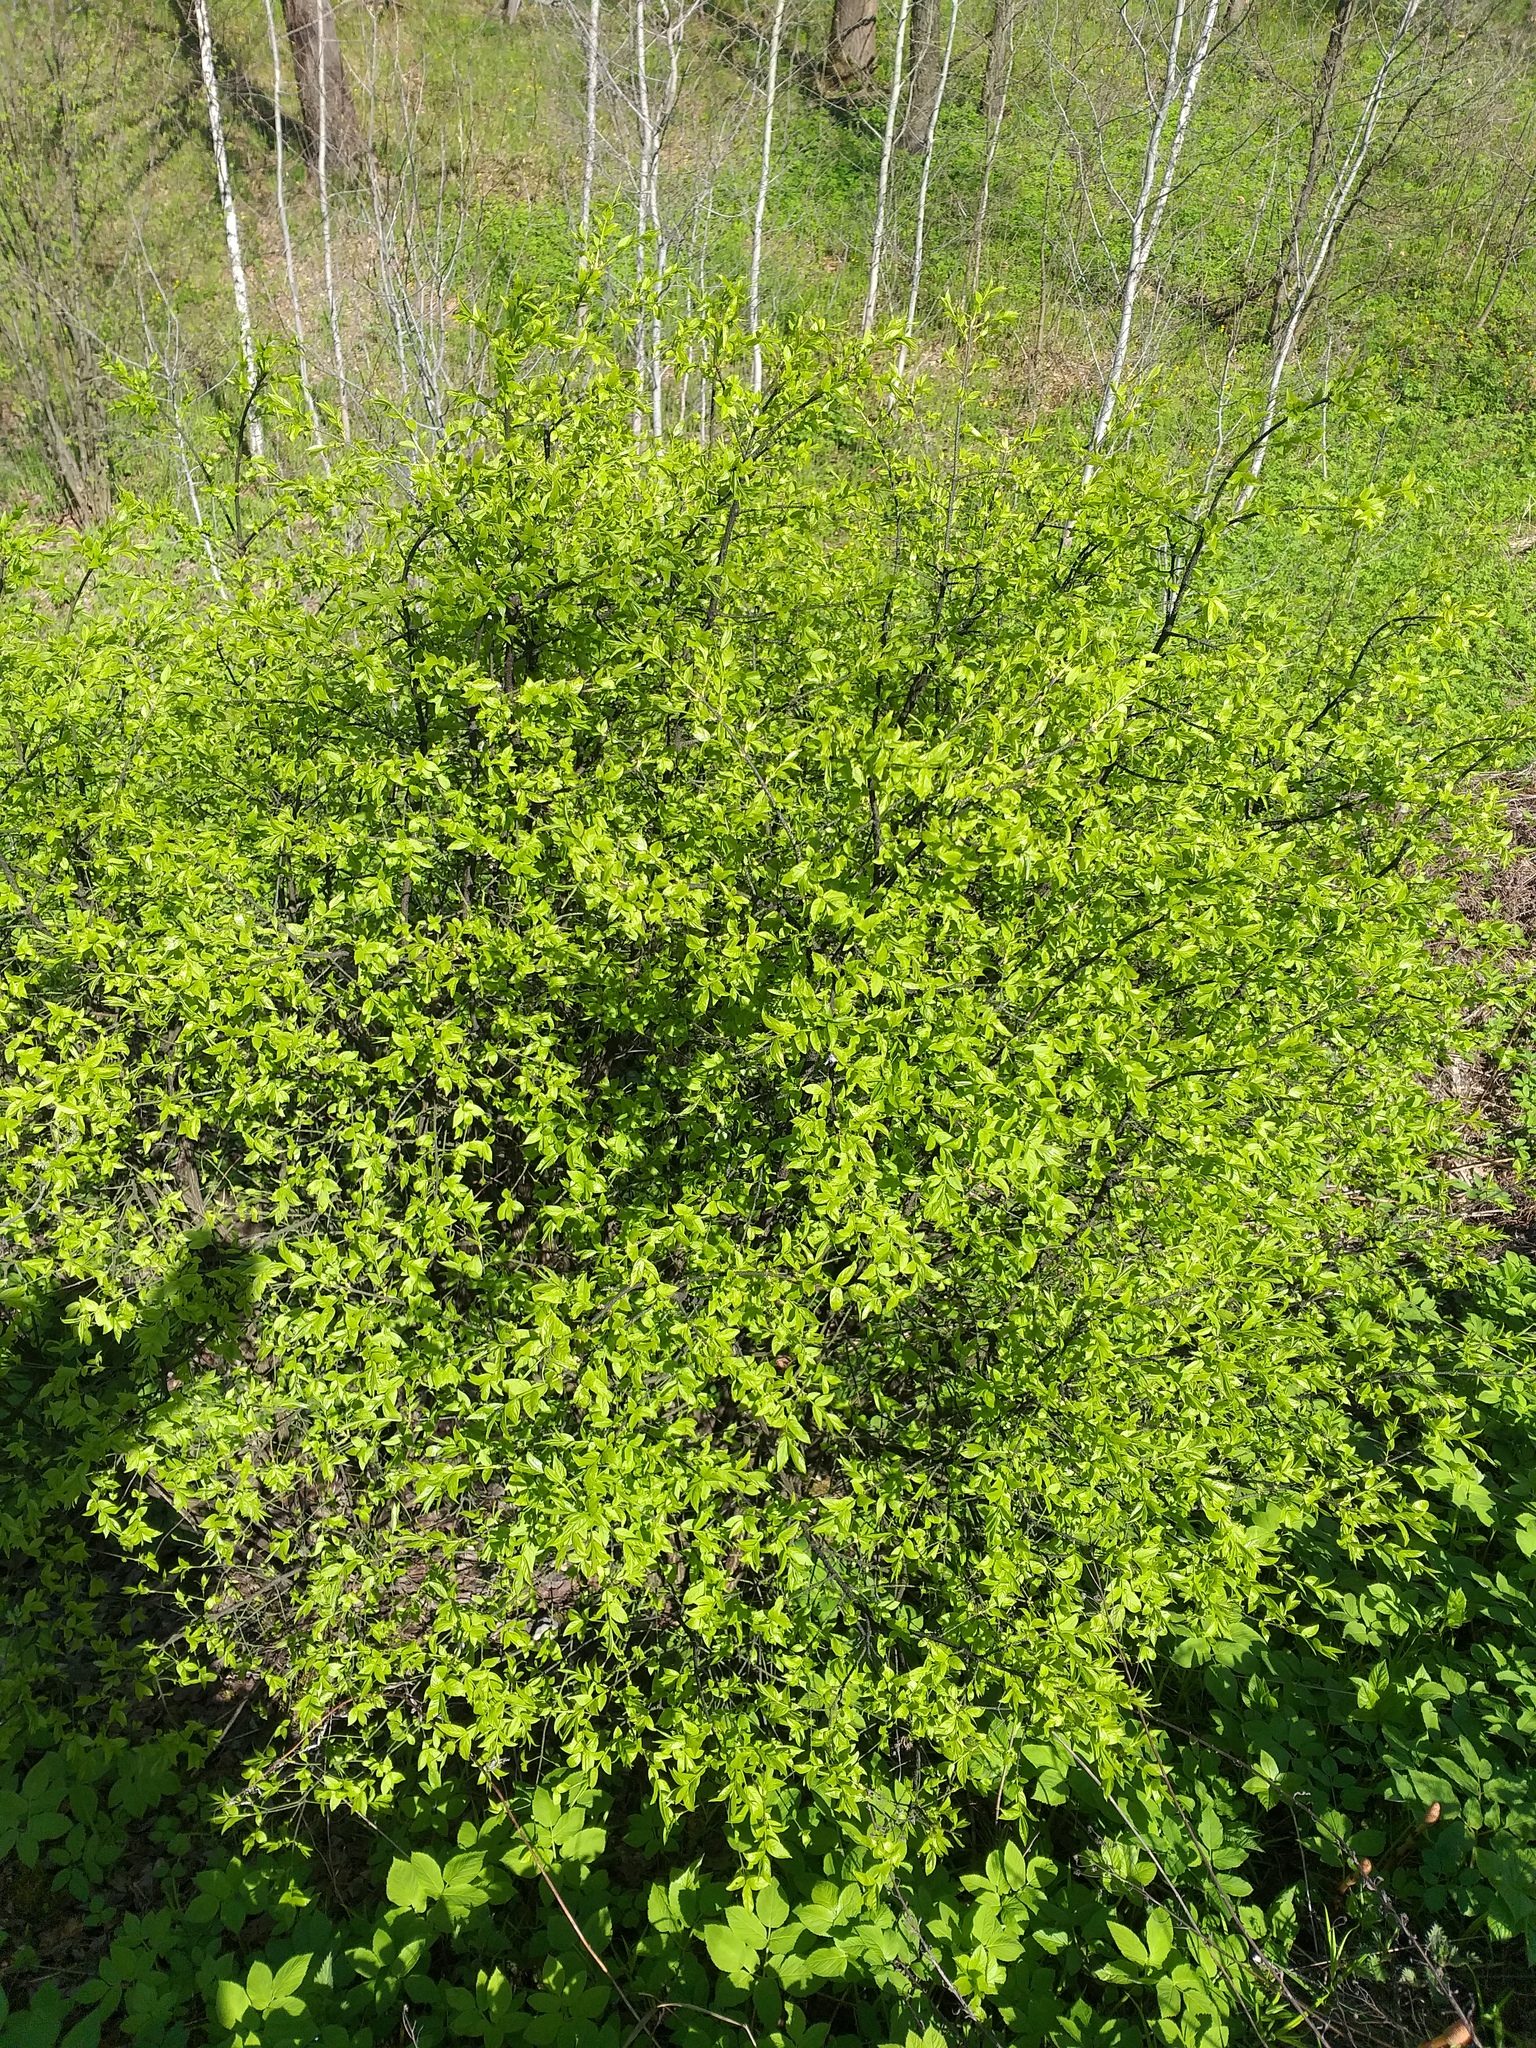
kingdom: Plantae
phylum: Tracheophyta
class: Magnoliopsida
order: Celastrales
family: Celastraceae
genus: Euonymus
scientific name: Euonymus verrucosus
